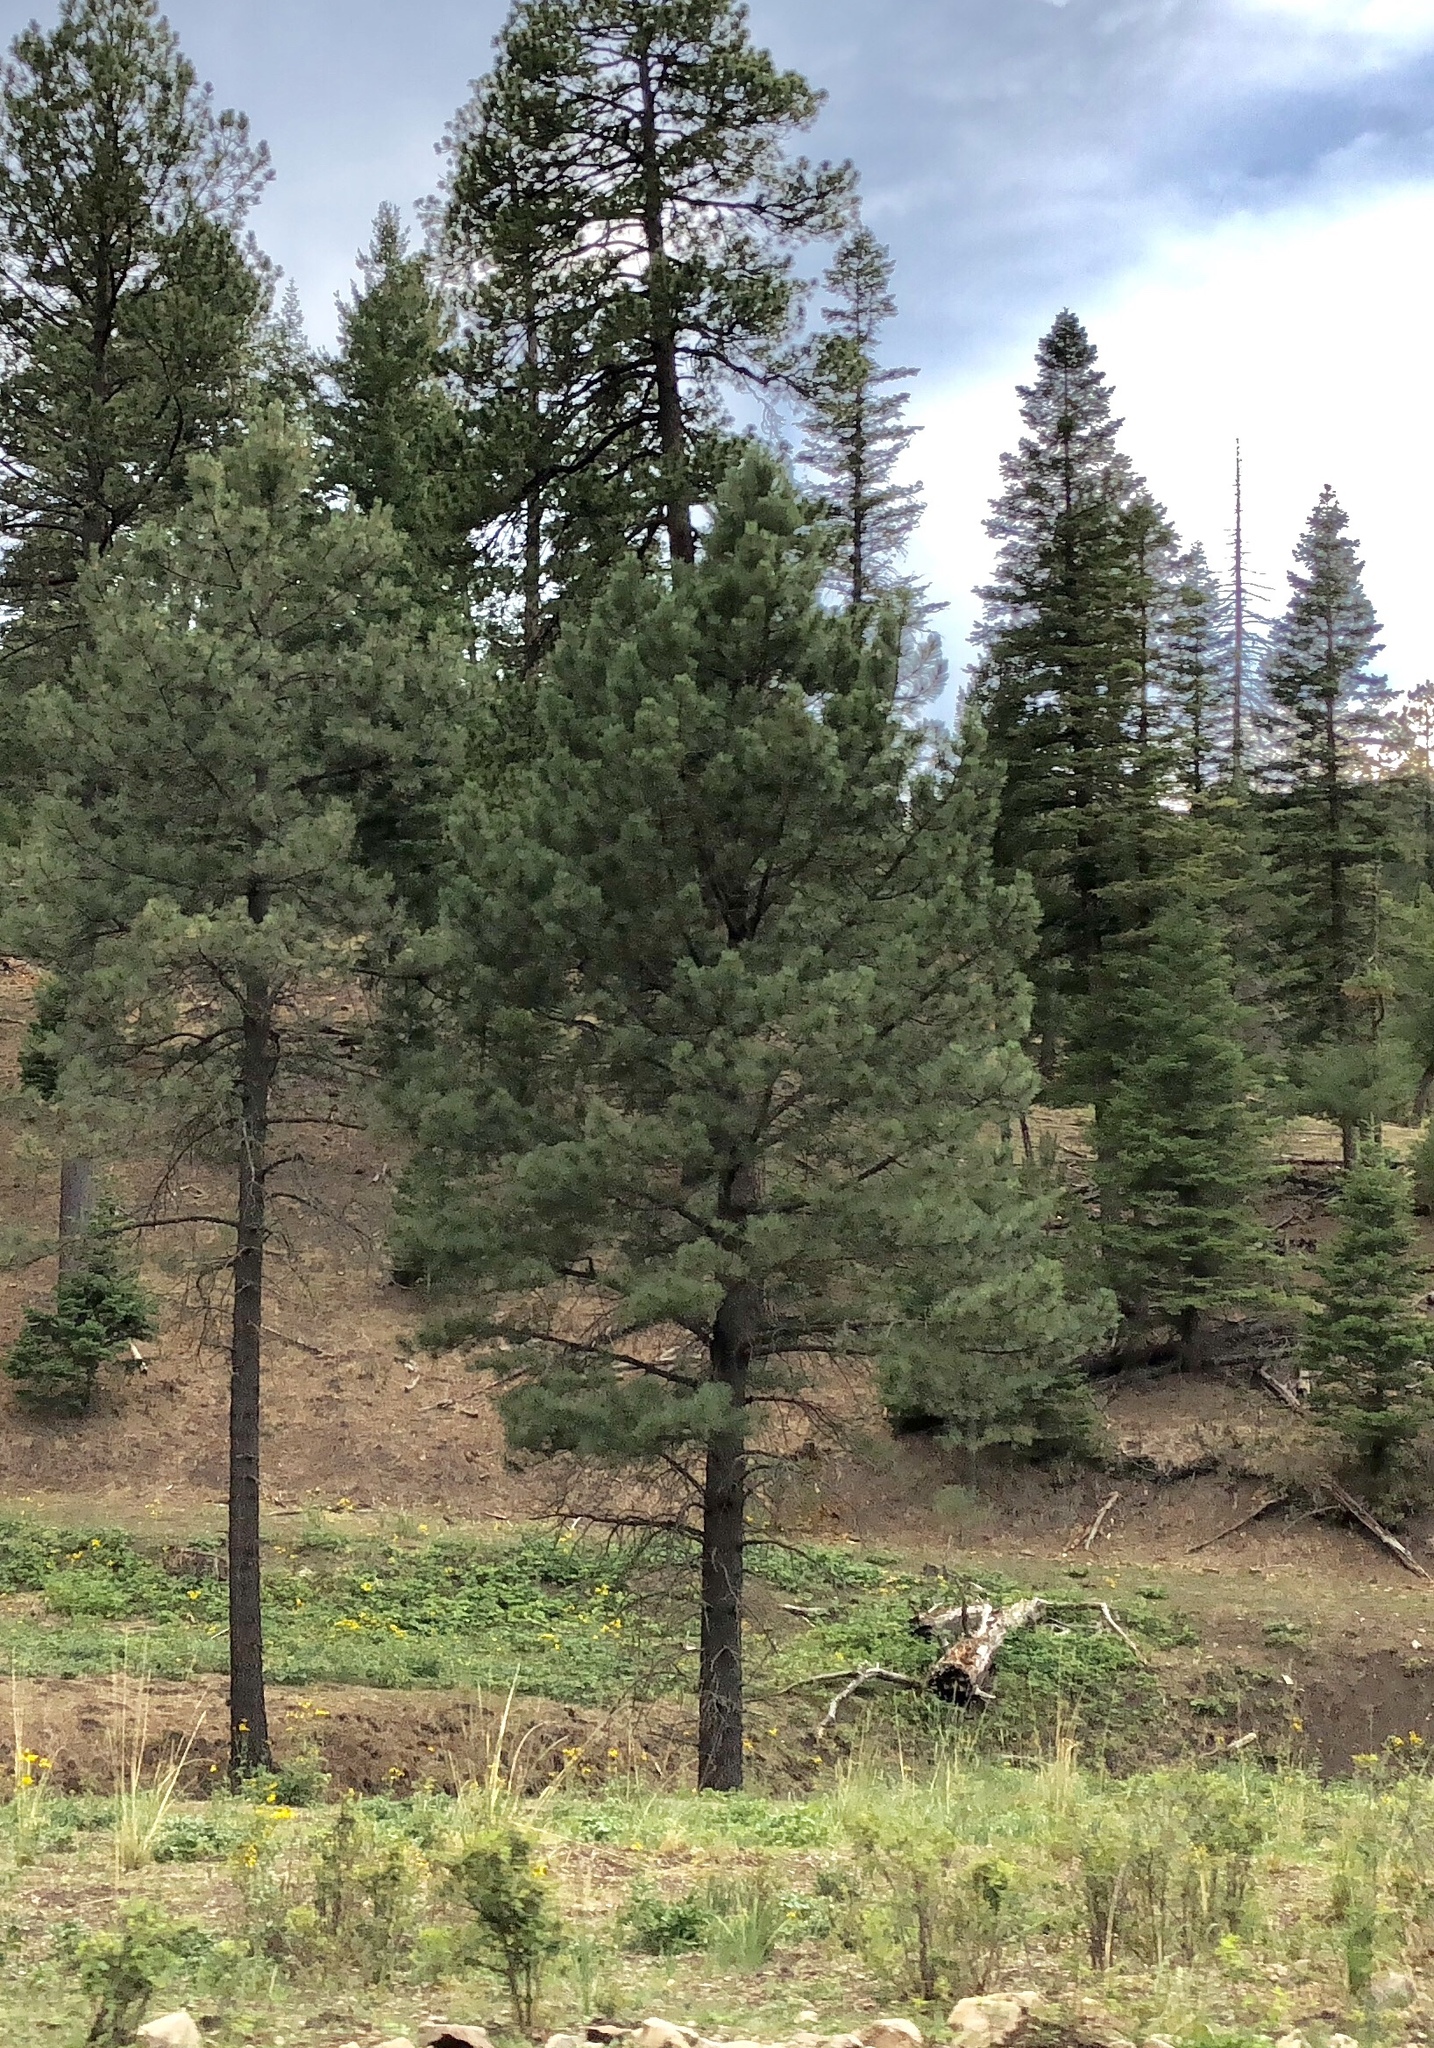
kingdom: Plantae
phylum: Tracheophyta
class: Pinopsida
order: Pinales
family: Pinaceae
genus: Pinus
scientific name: Pinus ponderosa
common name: Western yellow-pine
